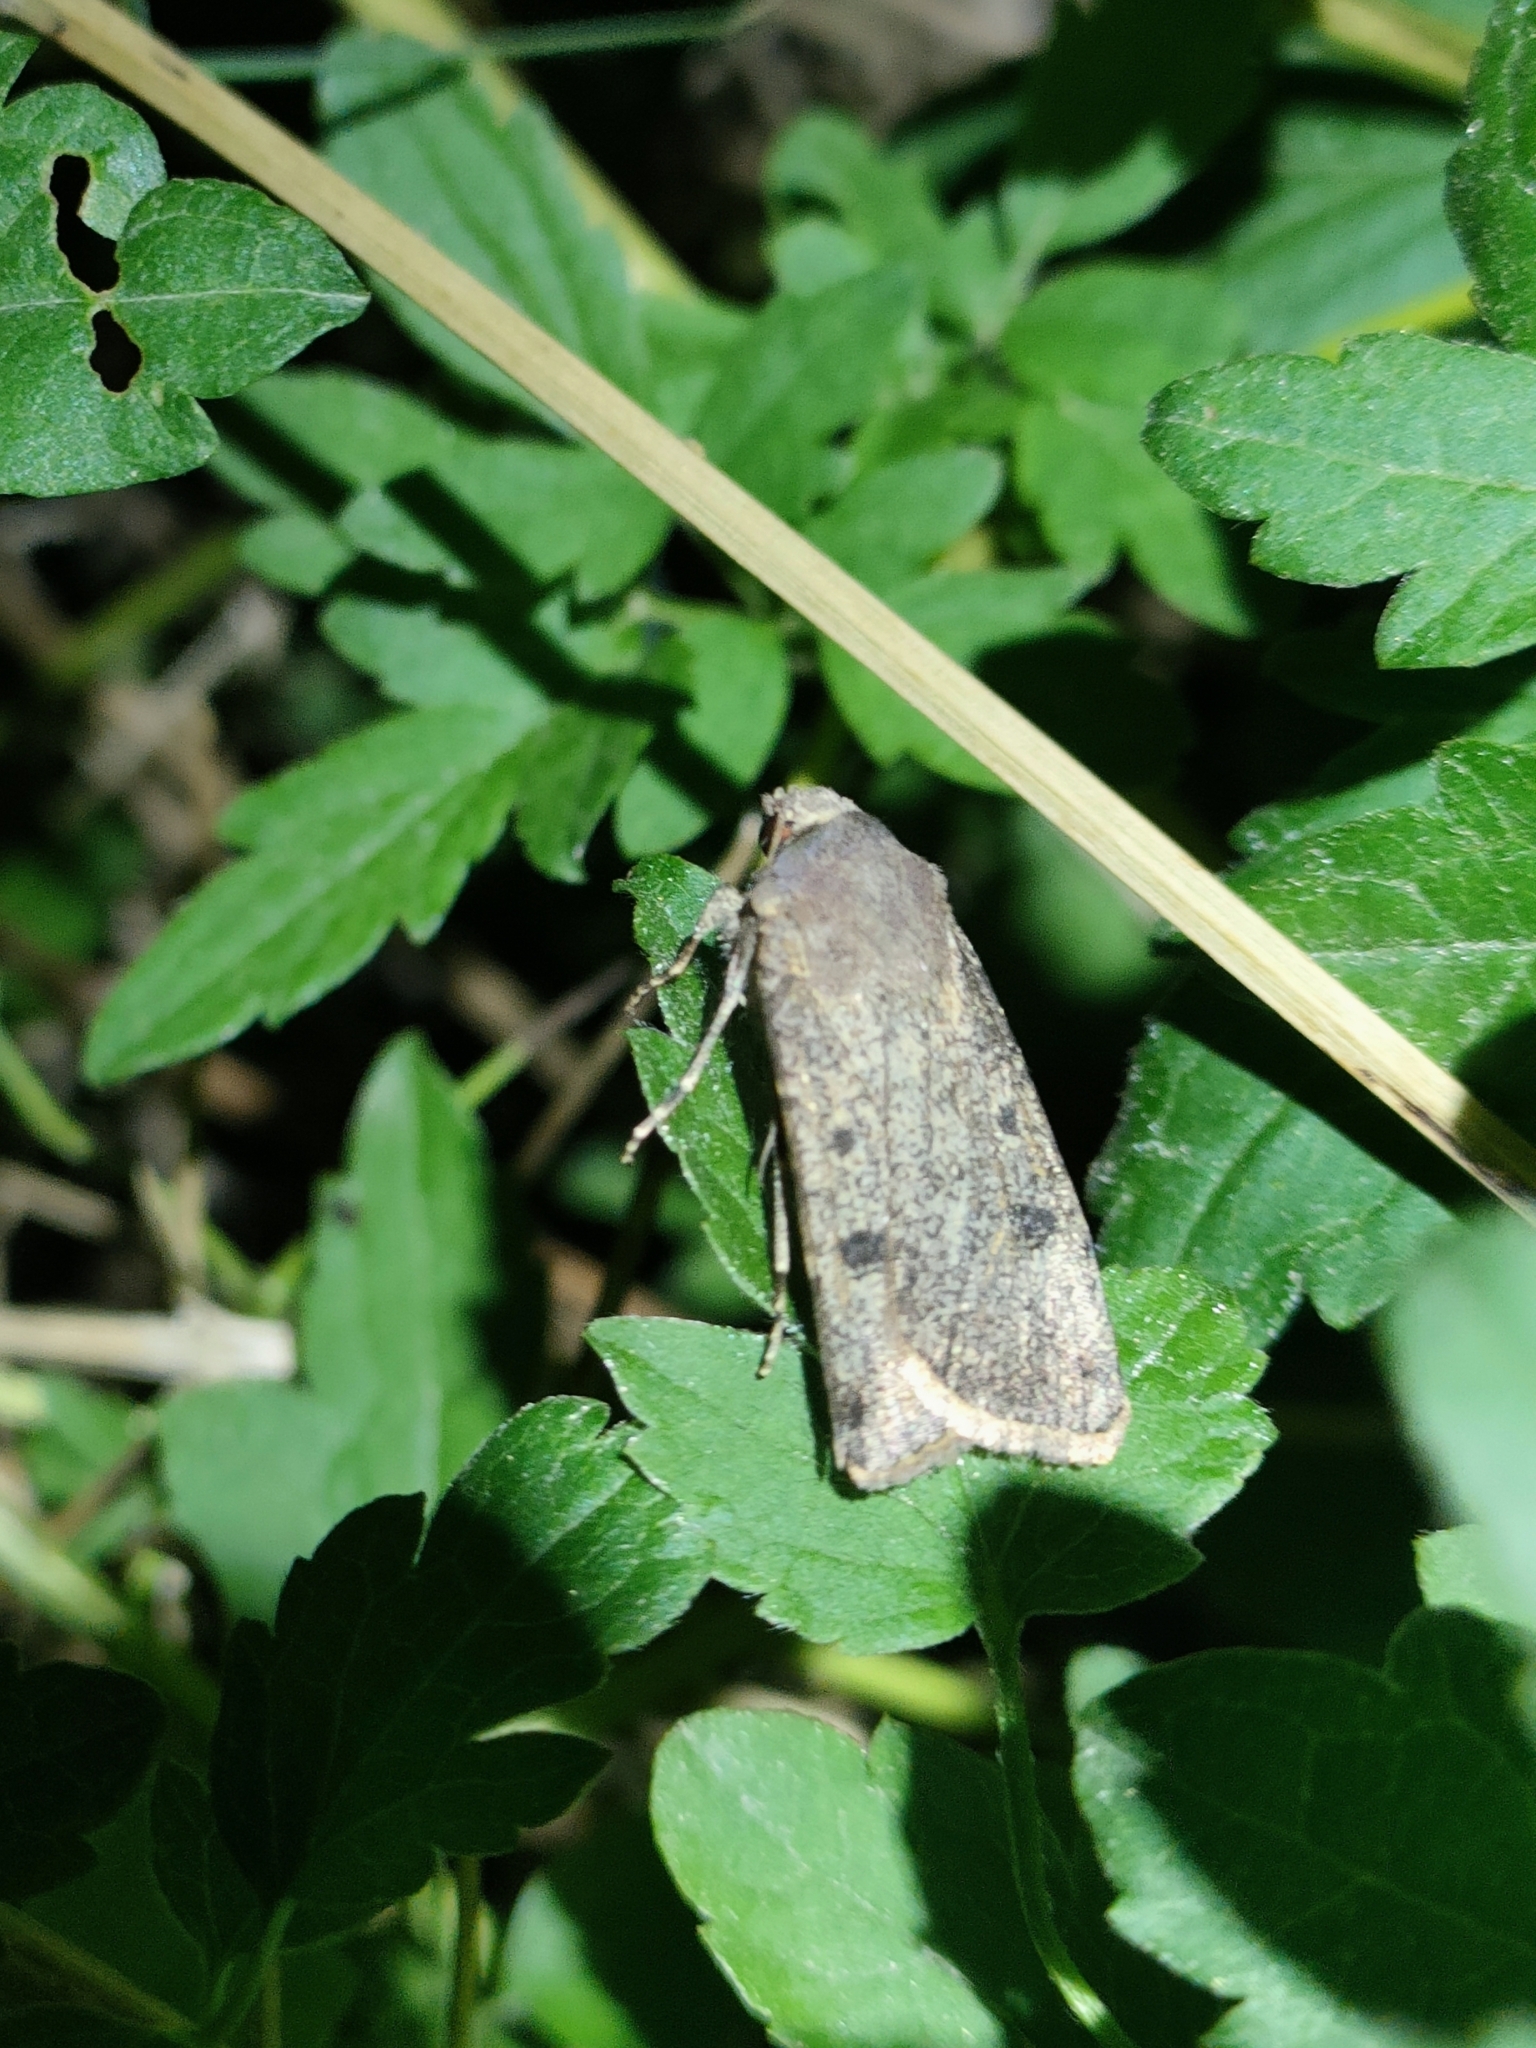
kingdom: Animalia
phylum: Arthropoda
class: Insecta
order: Lepidoptera
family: Noctuidae
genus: Agrotis
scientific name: Agrotis trux
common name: Crescent dart
